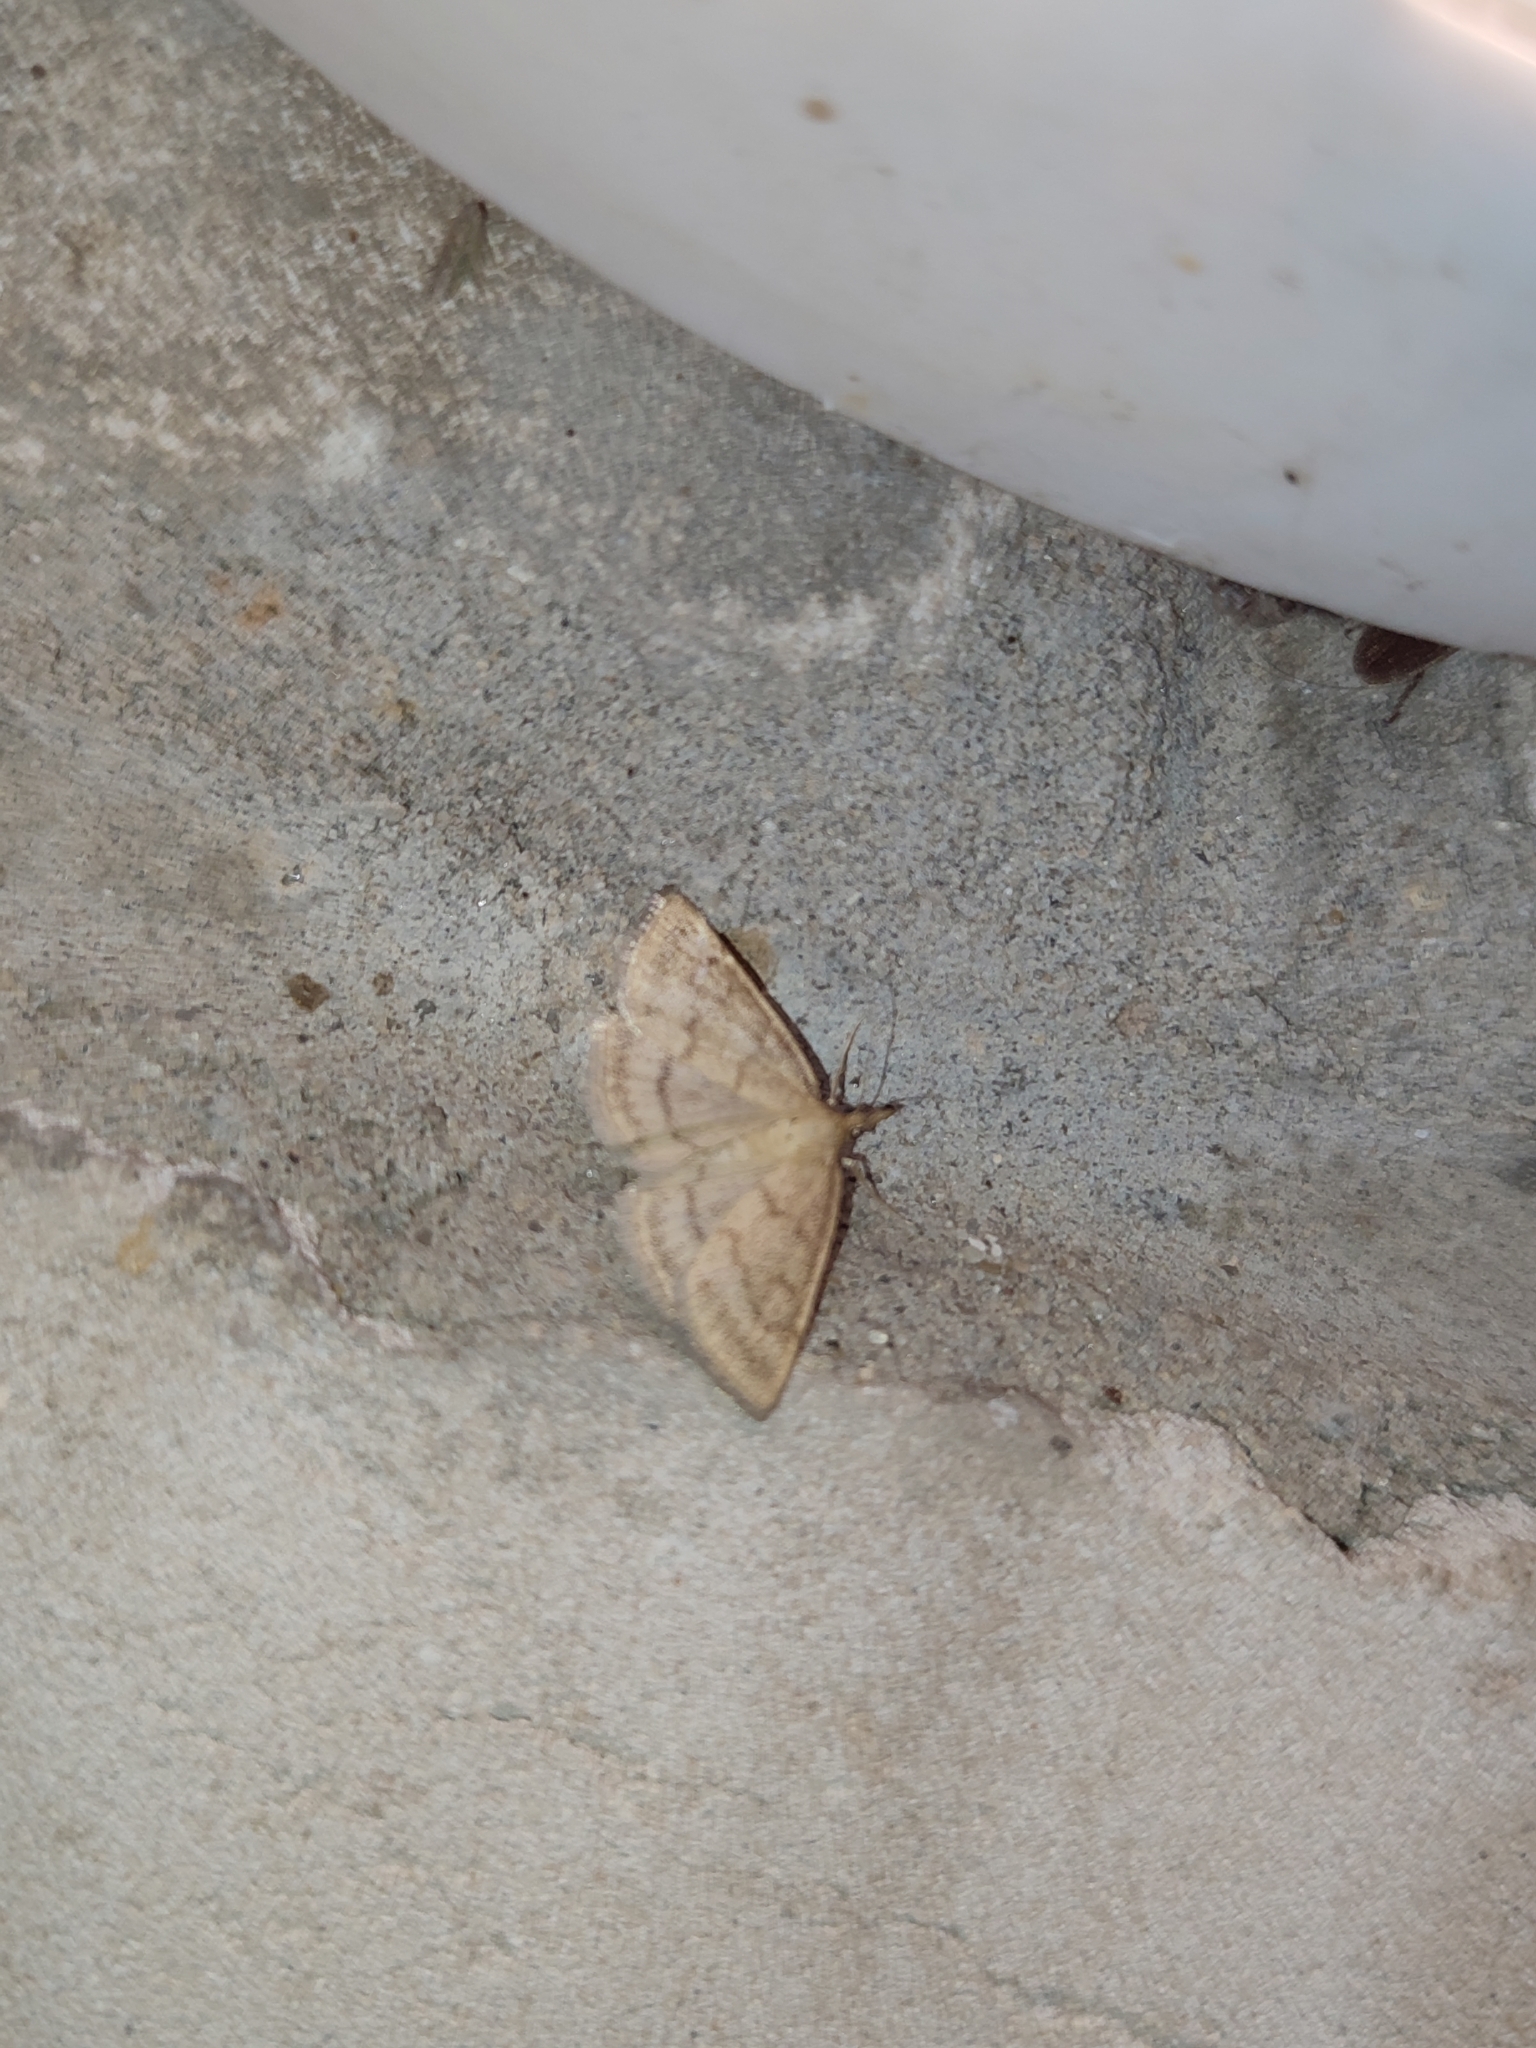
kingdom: Animalia
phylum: Arthropoda
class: Insecta
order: Lepidoptera
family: Crambidae
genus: Psammotis
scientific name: Psammotis viminalis
